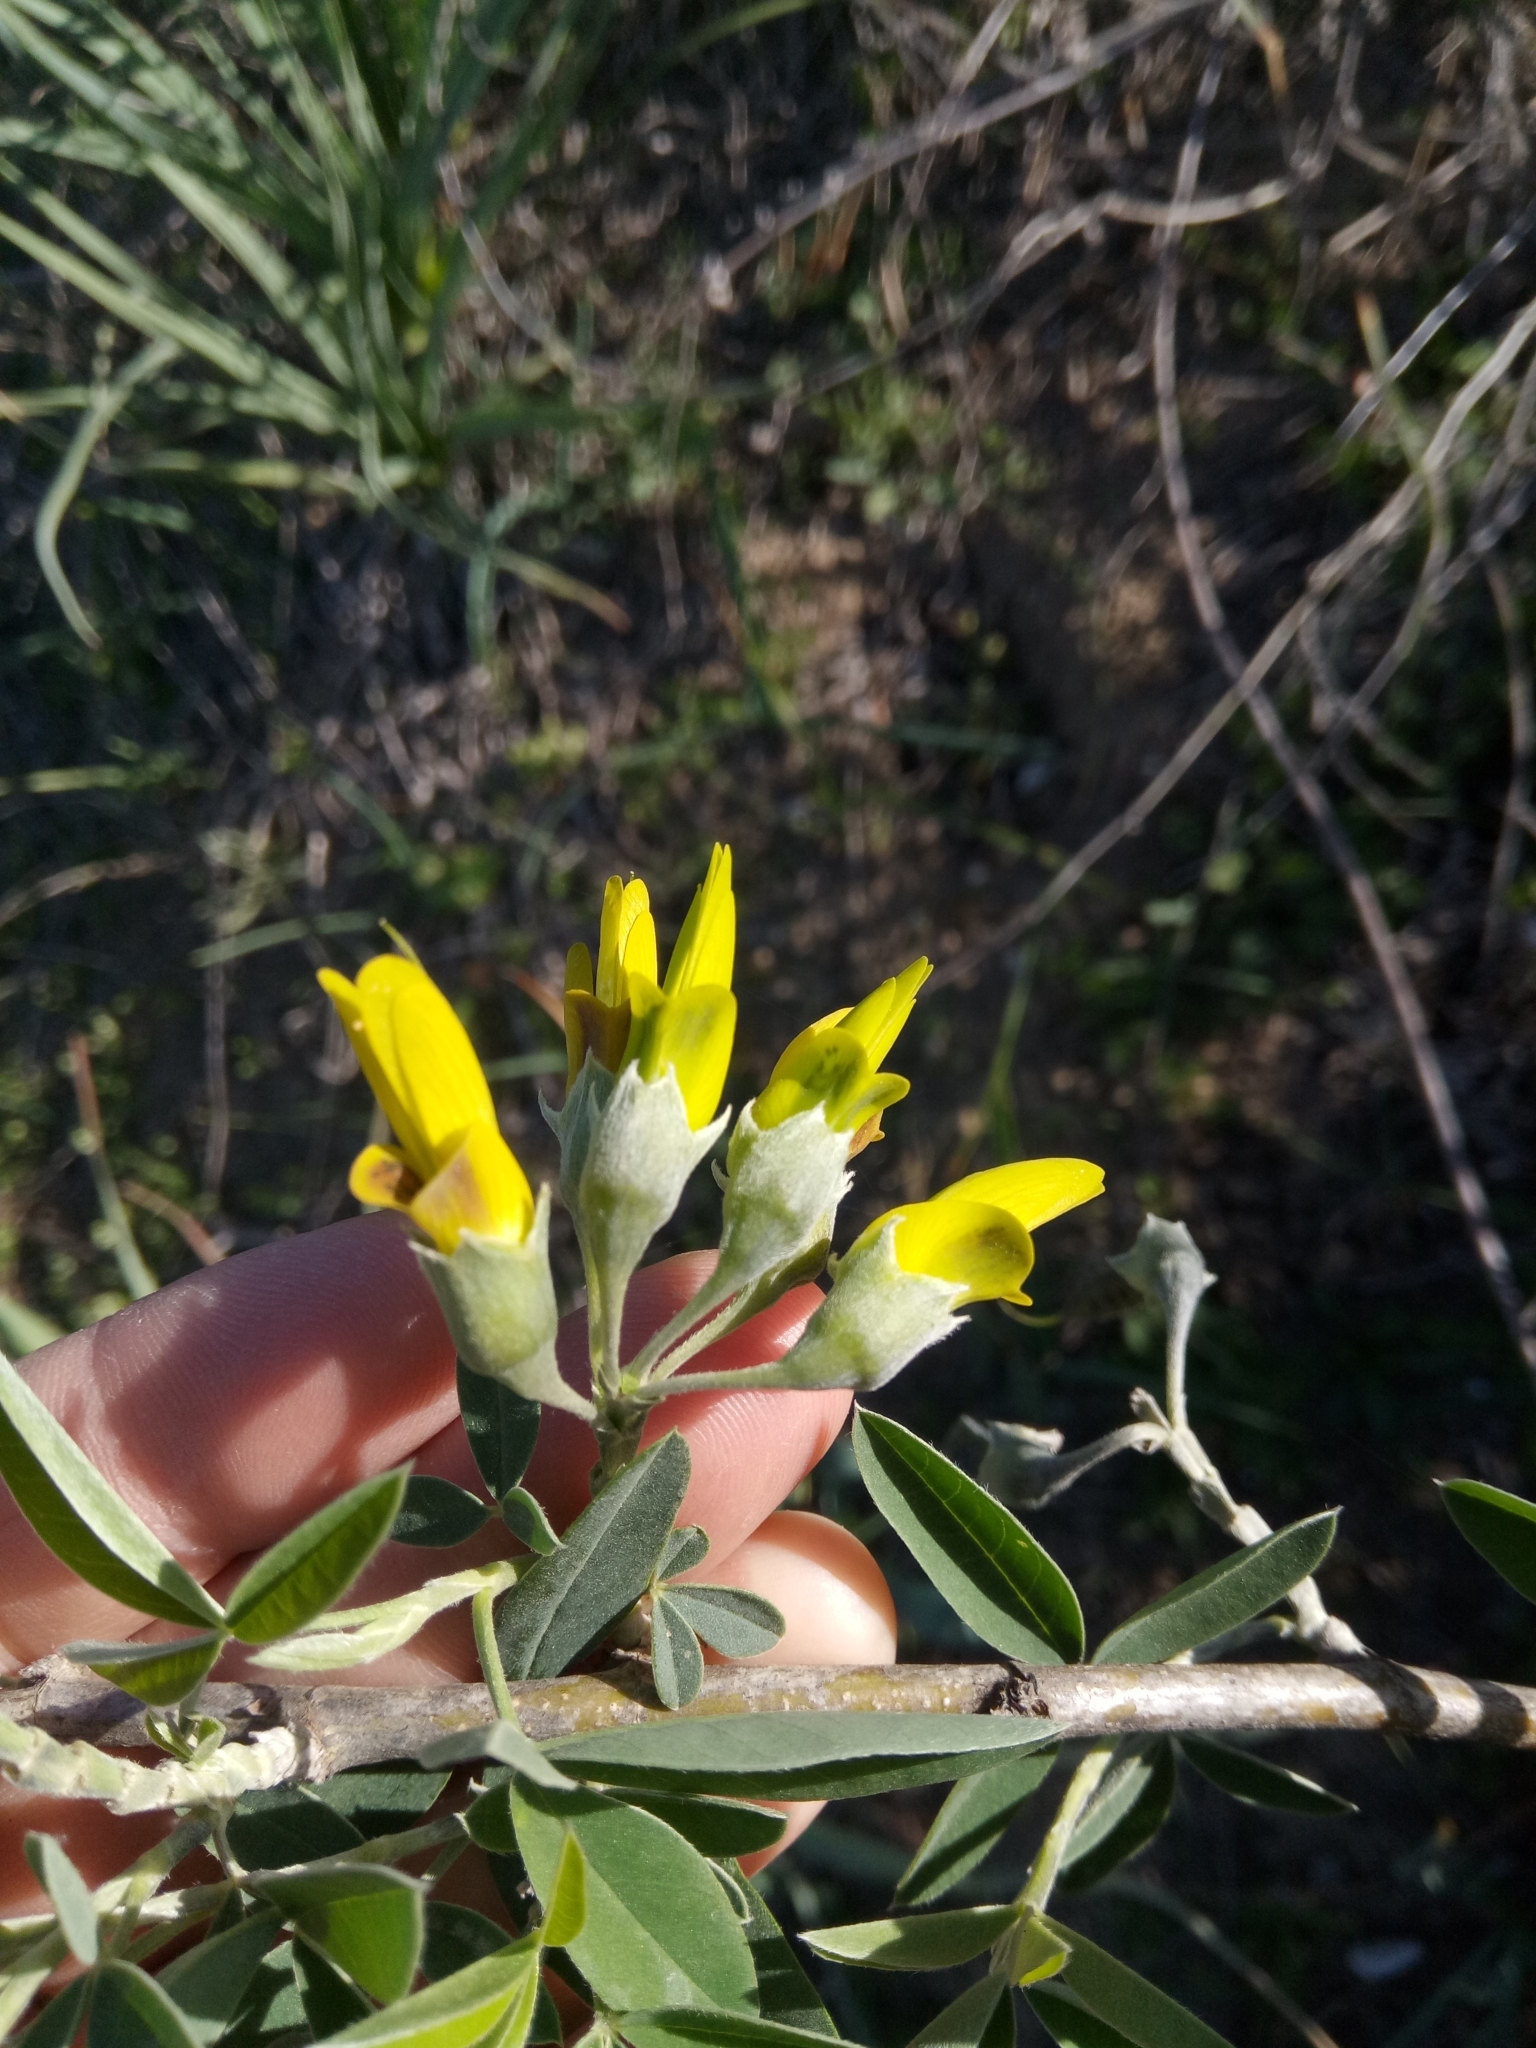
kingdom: Plantae
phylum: Tracheophyta
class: Magnoliopsida
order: Fabales
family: Fabaceae
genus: Anagyris
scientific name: Anagyris foetida
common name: Stinking bean trefoil
